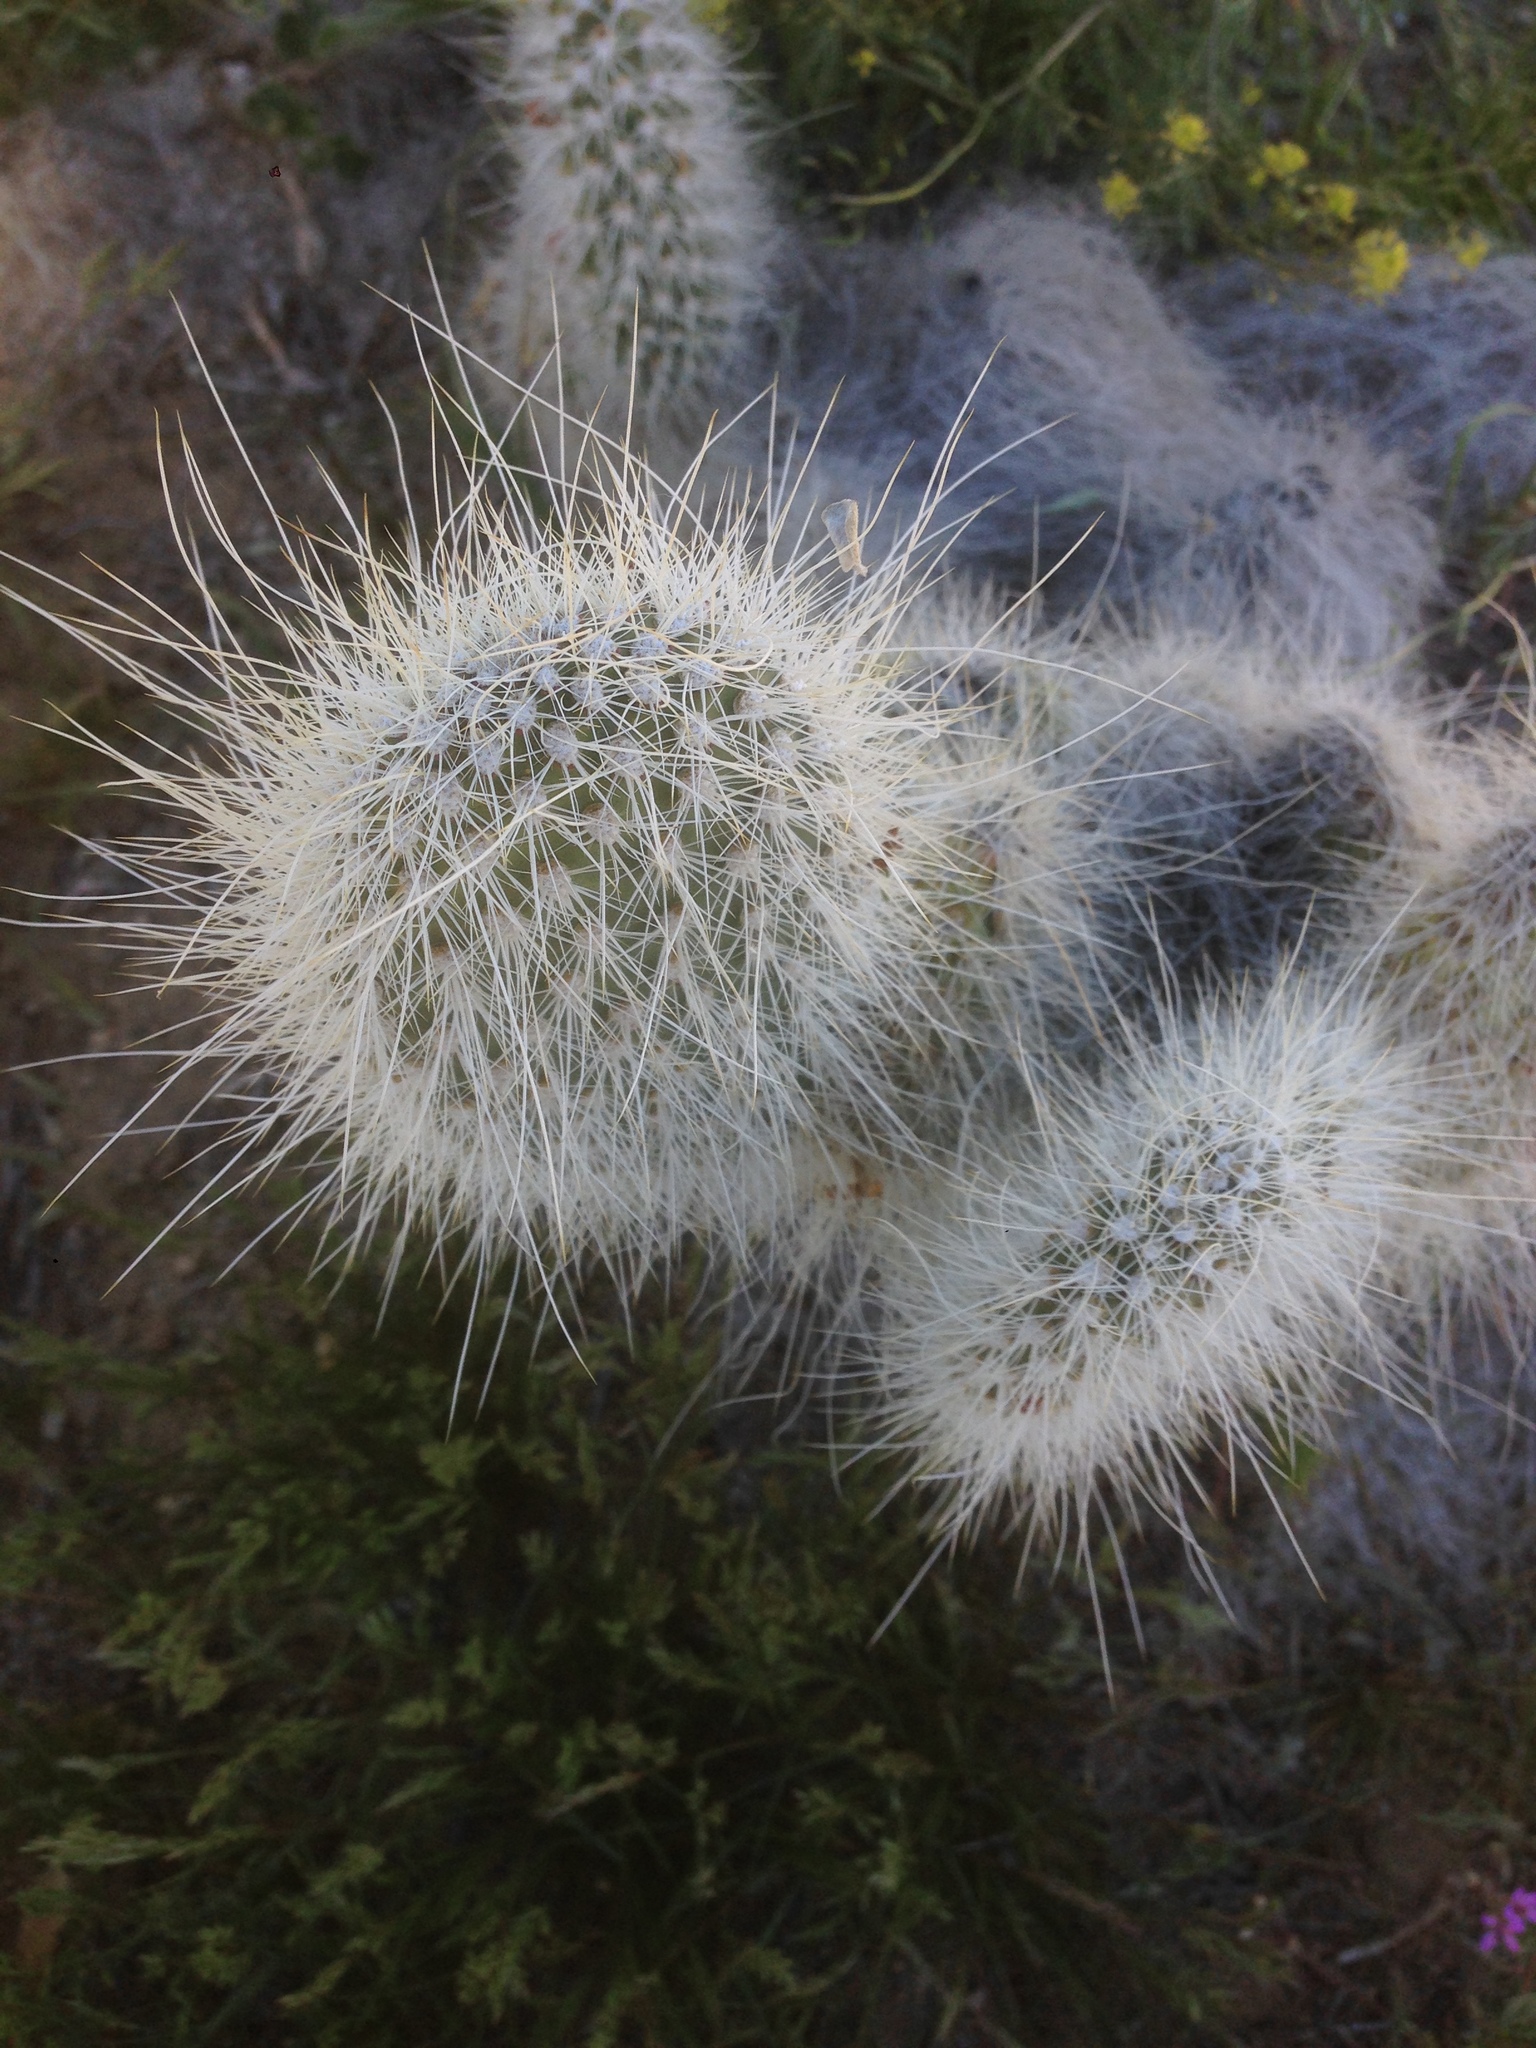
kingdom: Plantae
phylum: Tracheophyta
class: Magnoliopsida
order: Caryophyllales
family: Cactaceae
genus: Opuntia
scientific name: Opuntia polyacantha
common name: Plains prickly-pear
